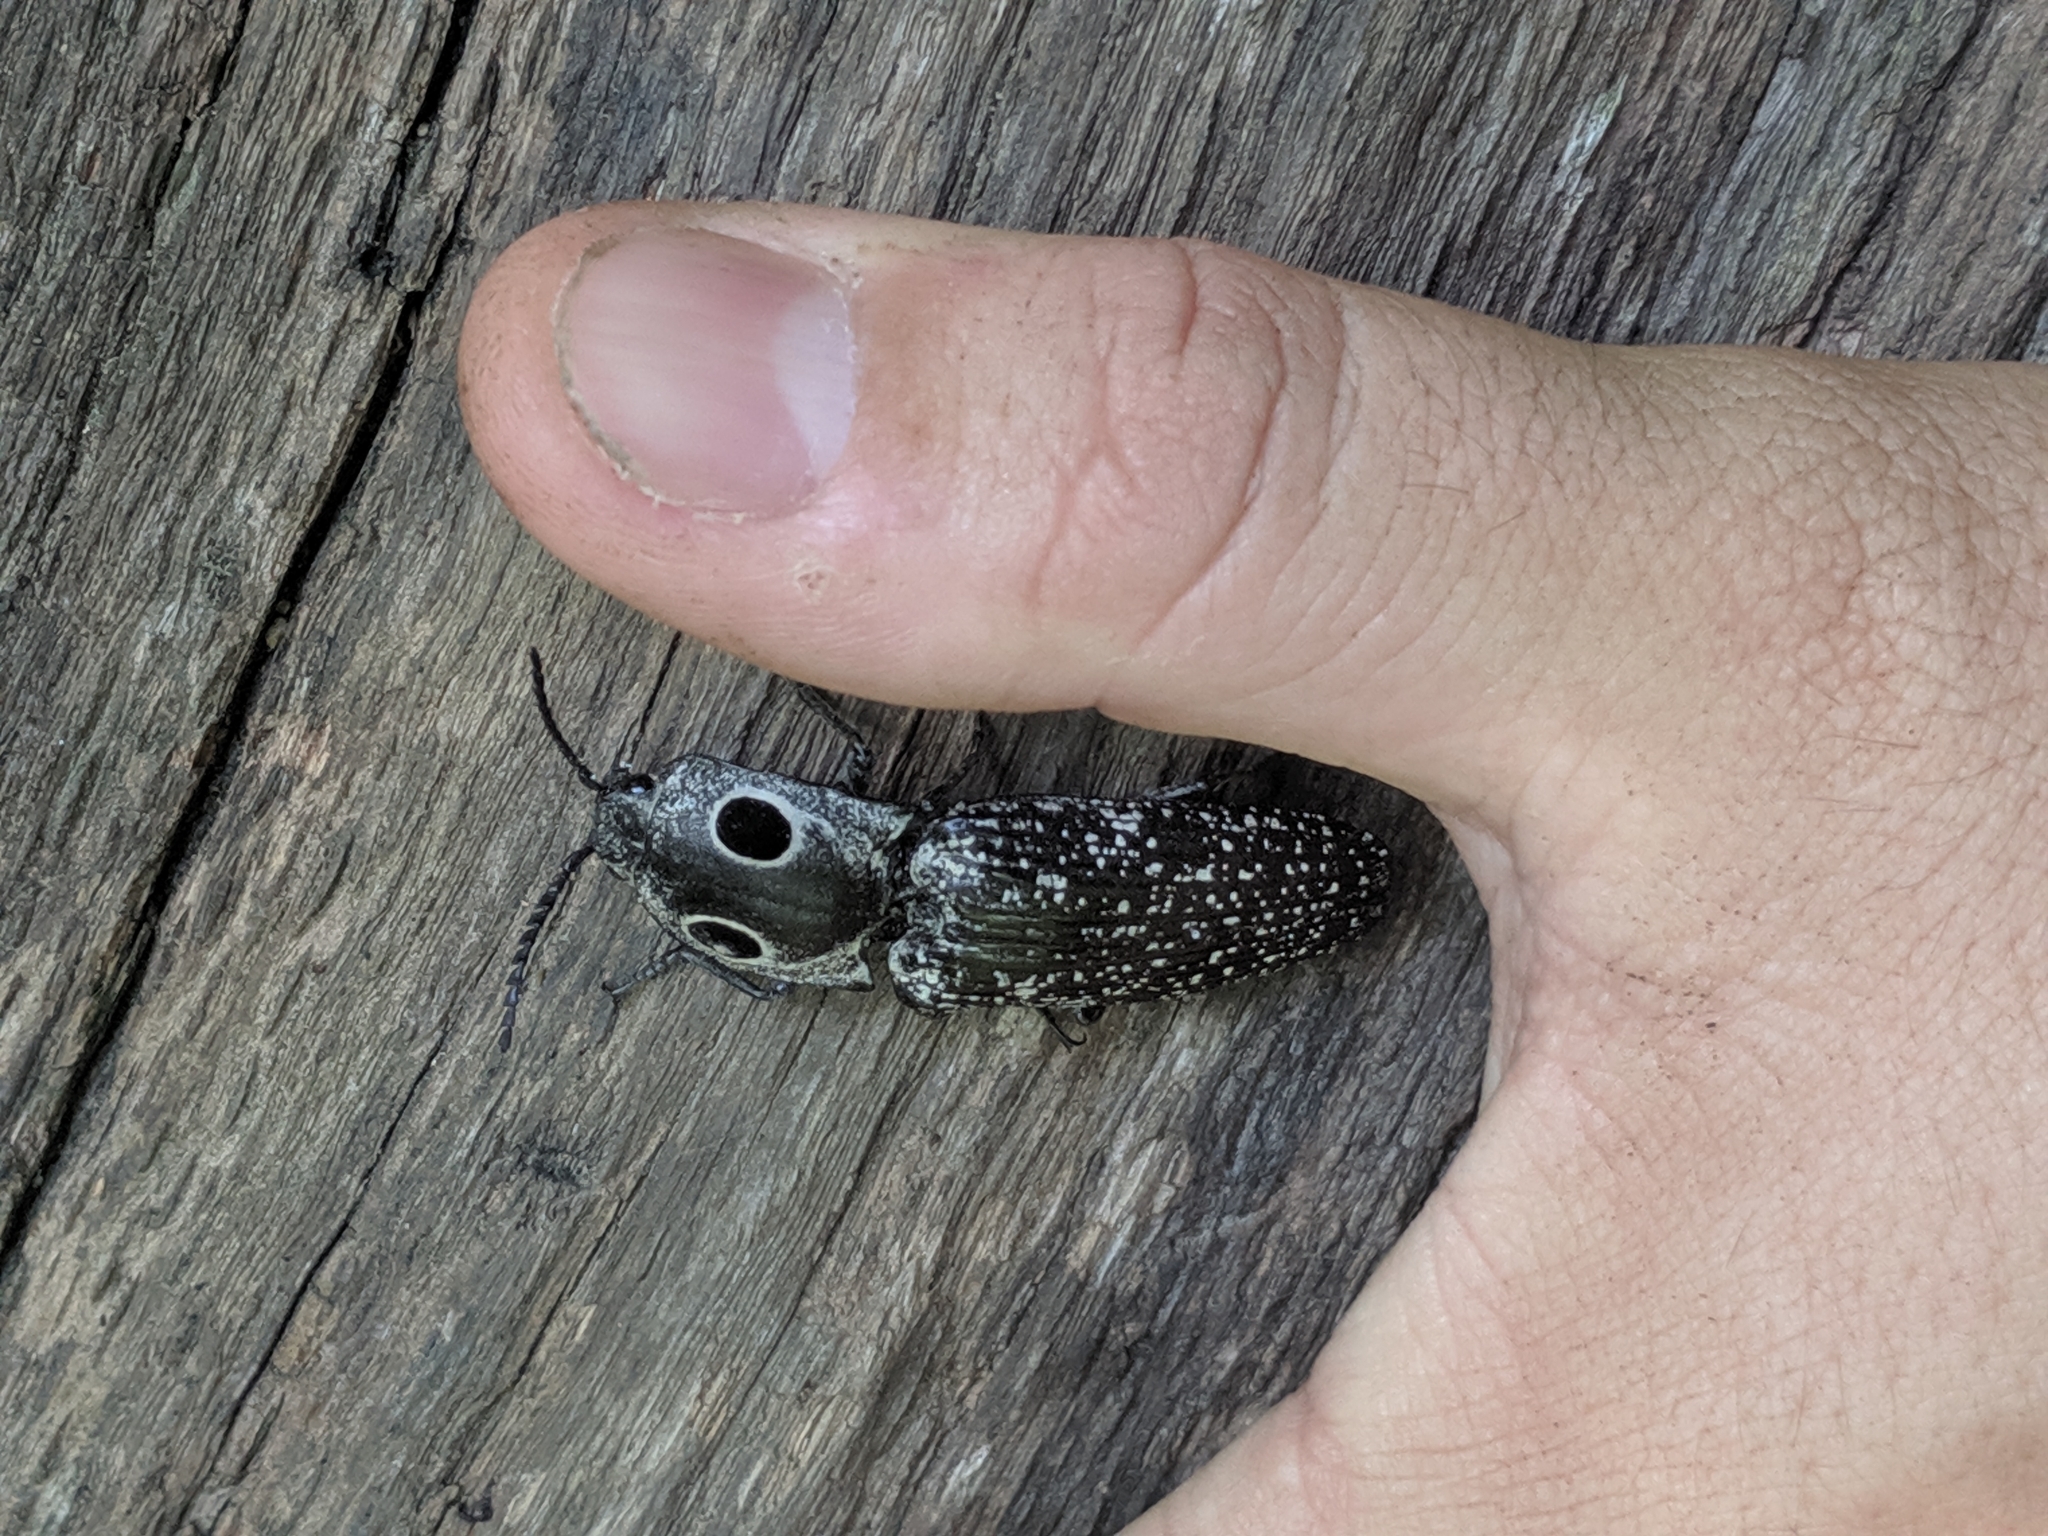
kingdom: Animalia
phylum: Arthropoda
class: Insecta
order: Coleoptera
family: Elateridae
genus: Alaus
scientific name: Alaus oculatus
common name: Eastern eyed click beetle
